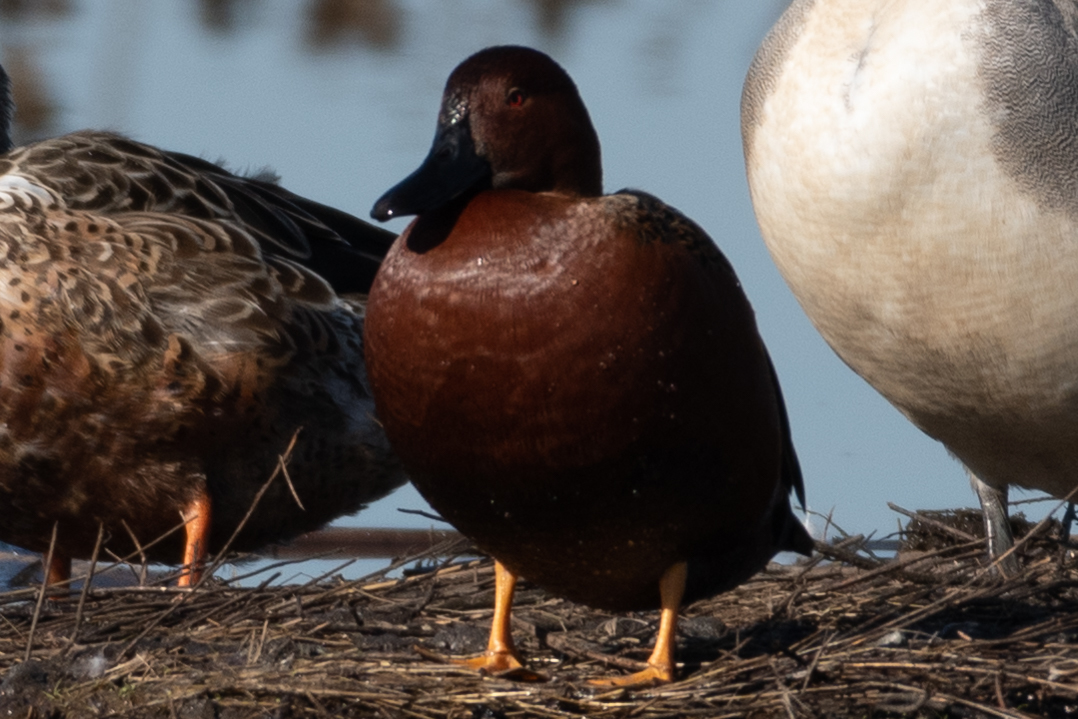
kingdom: Animalia
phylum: Chordata
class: Aves
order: Anseriformes
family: Anatidae
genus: Spatula
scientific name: Spatula cyanoptera
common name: Cinnamon teal
